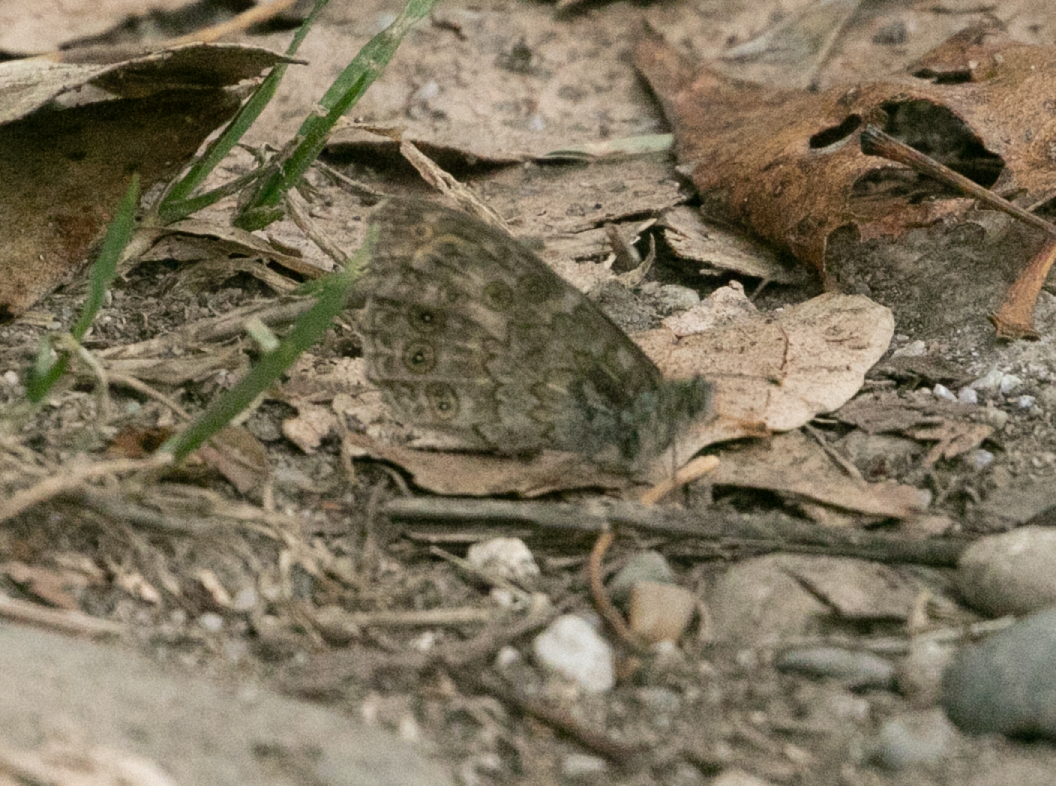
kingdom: Animalia
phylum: Arthropoda
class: Insecta
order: Lepidoptera
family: Nymphalidae
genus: Pararge
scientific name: Pararge Lasiommata megera
